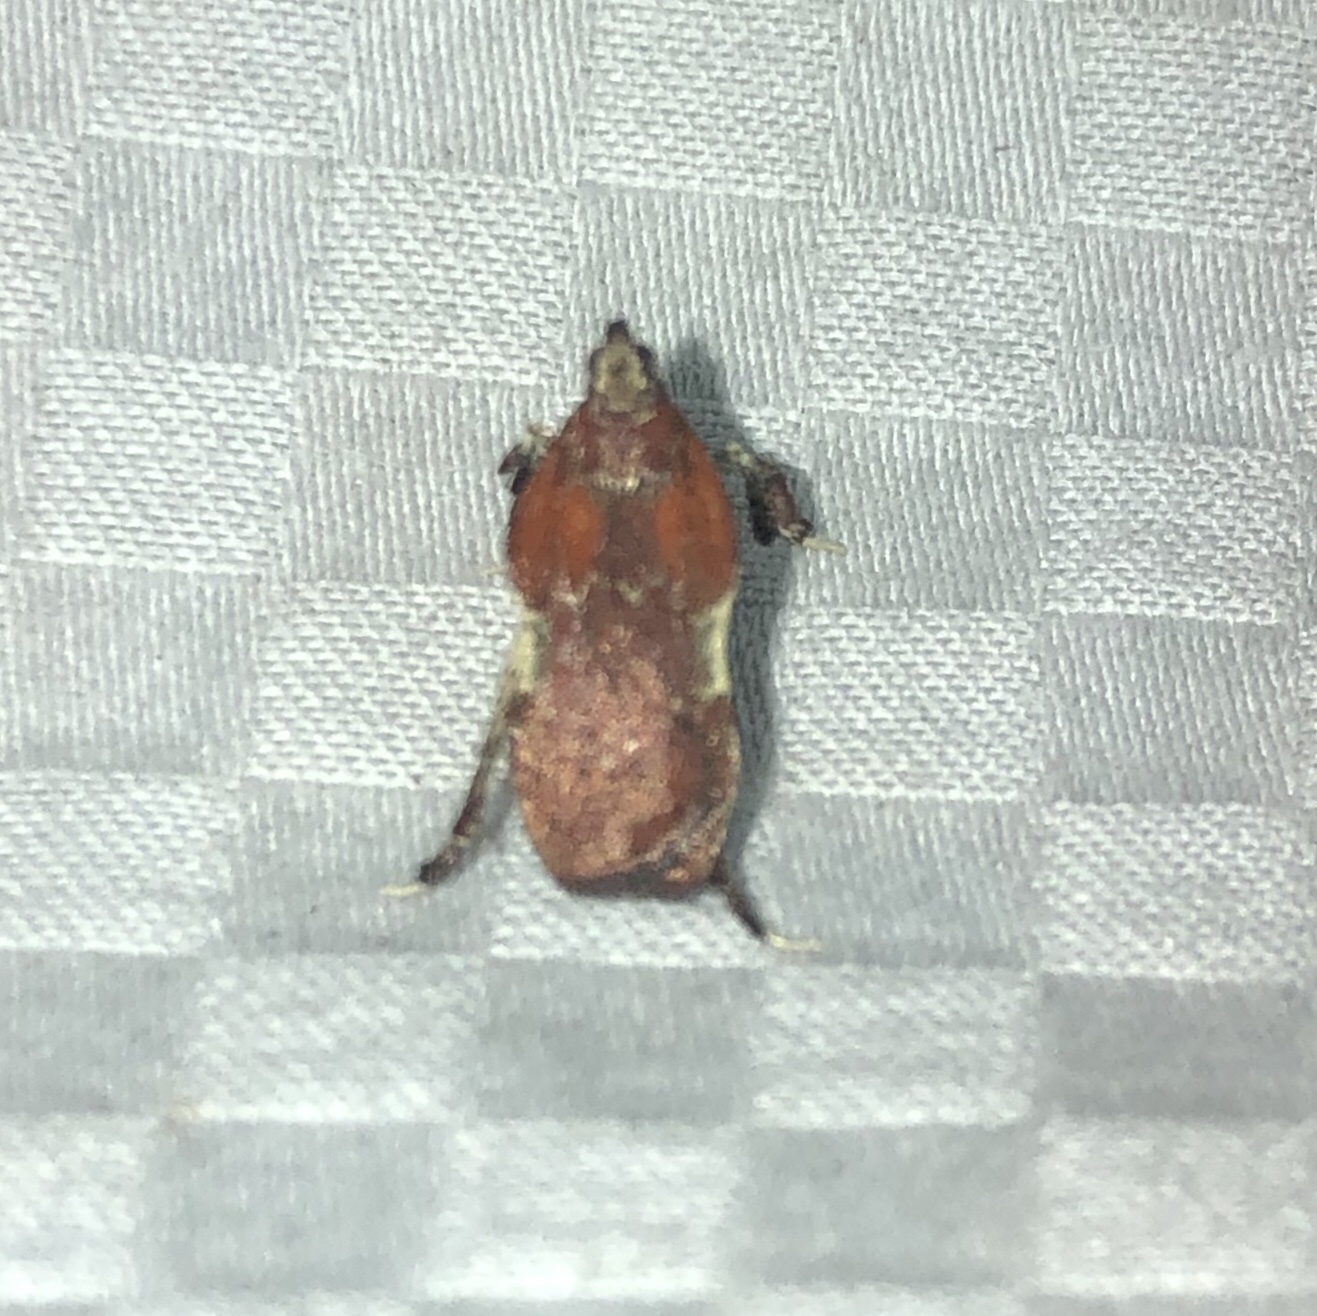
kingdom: Animalia
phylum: Arthropoda
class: Insecta
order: Lepidoptera
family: Pyralidae
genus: Galasa
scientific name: Galasa nigrinodis
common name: Boxwood leaftier moth
